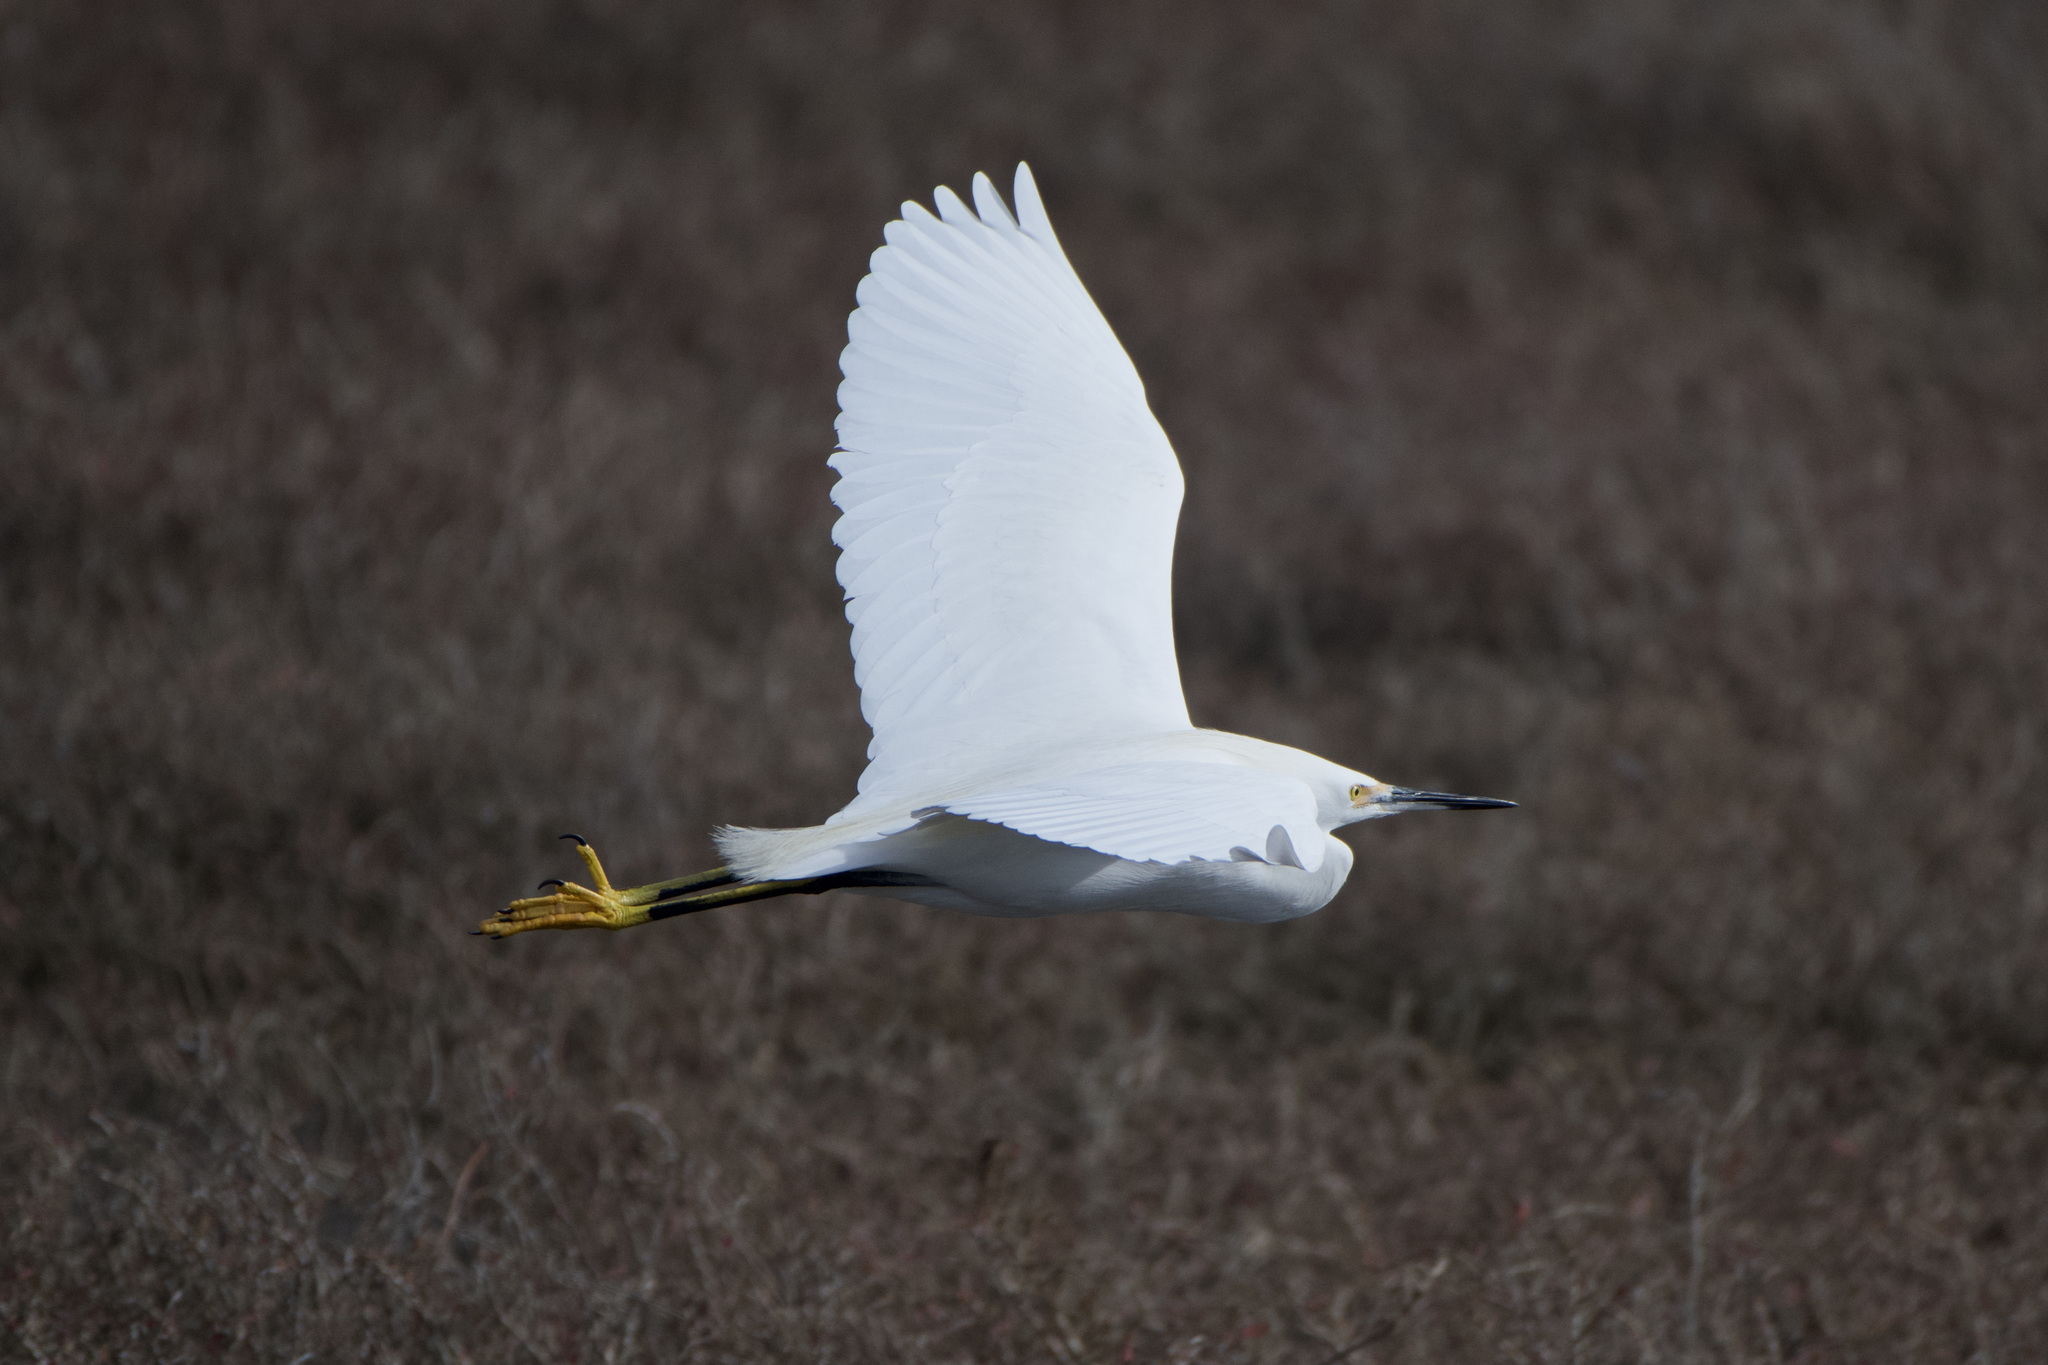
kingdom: Animalia
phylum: Chordata
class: Aves
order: Pelecaniformes
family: Ardeidae
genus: Egretta
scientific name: Egretta thula
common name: Snowy egret
